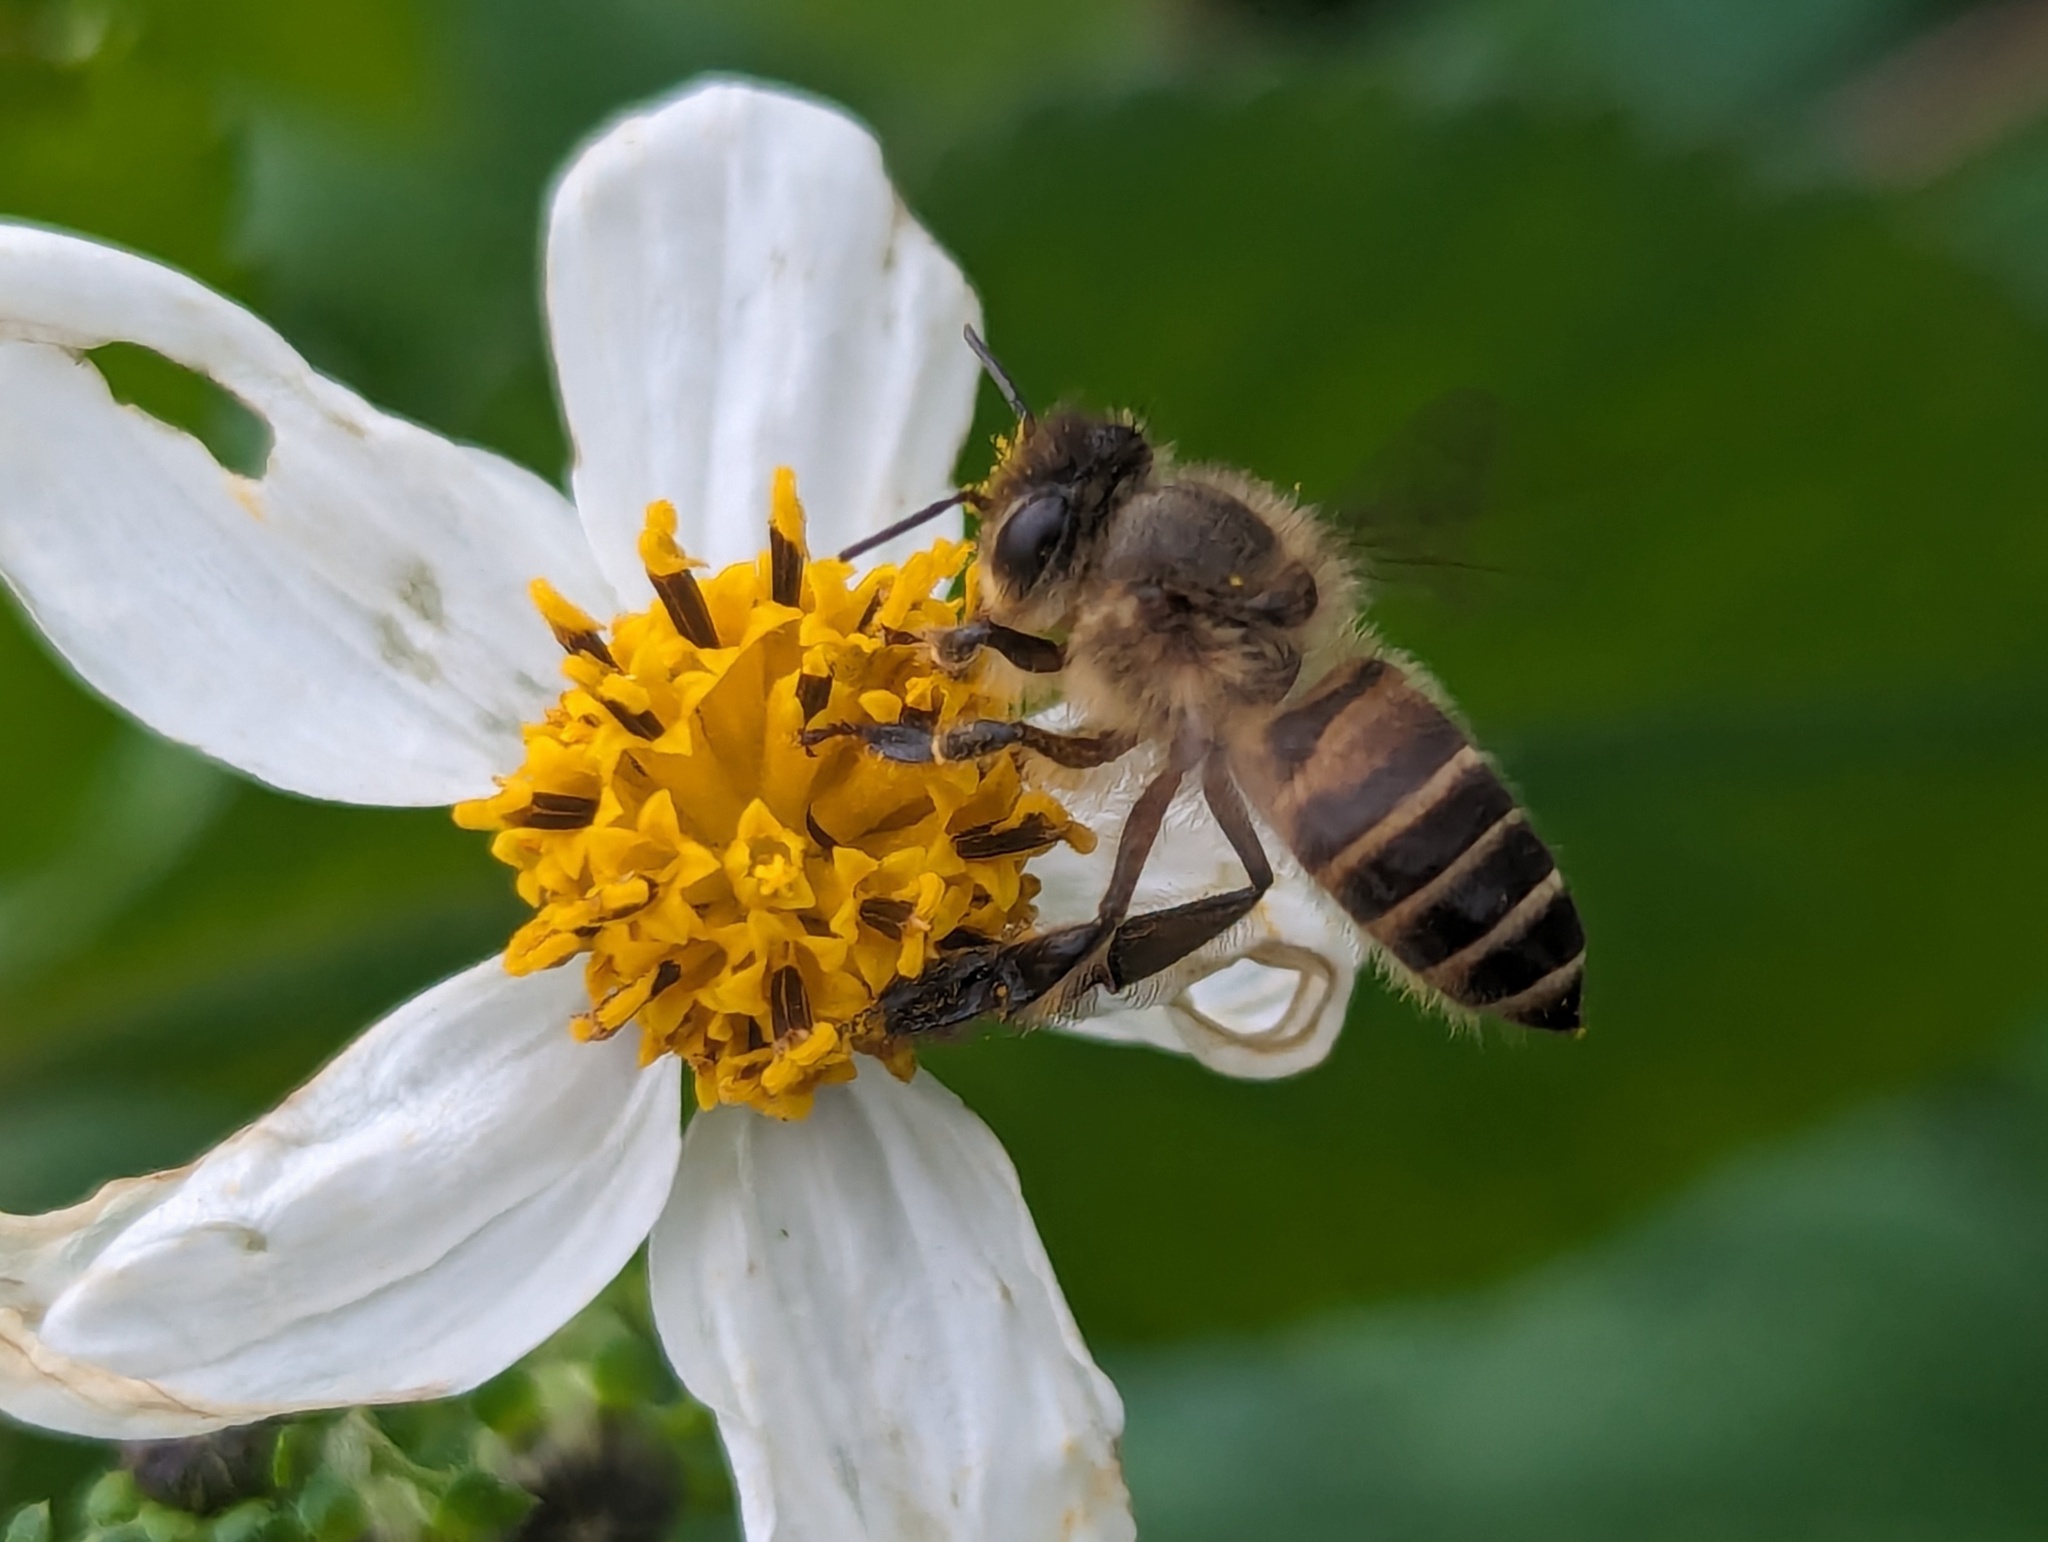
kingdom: Animalia
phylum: Arthropoda
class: Insecta
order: Hymenoptera
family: Apidae
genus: Apis
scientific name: Apis cerana
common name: Honey bee
